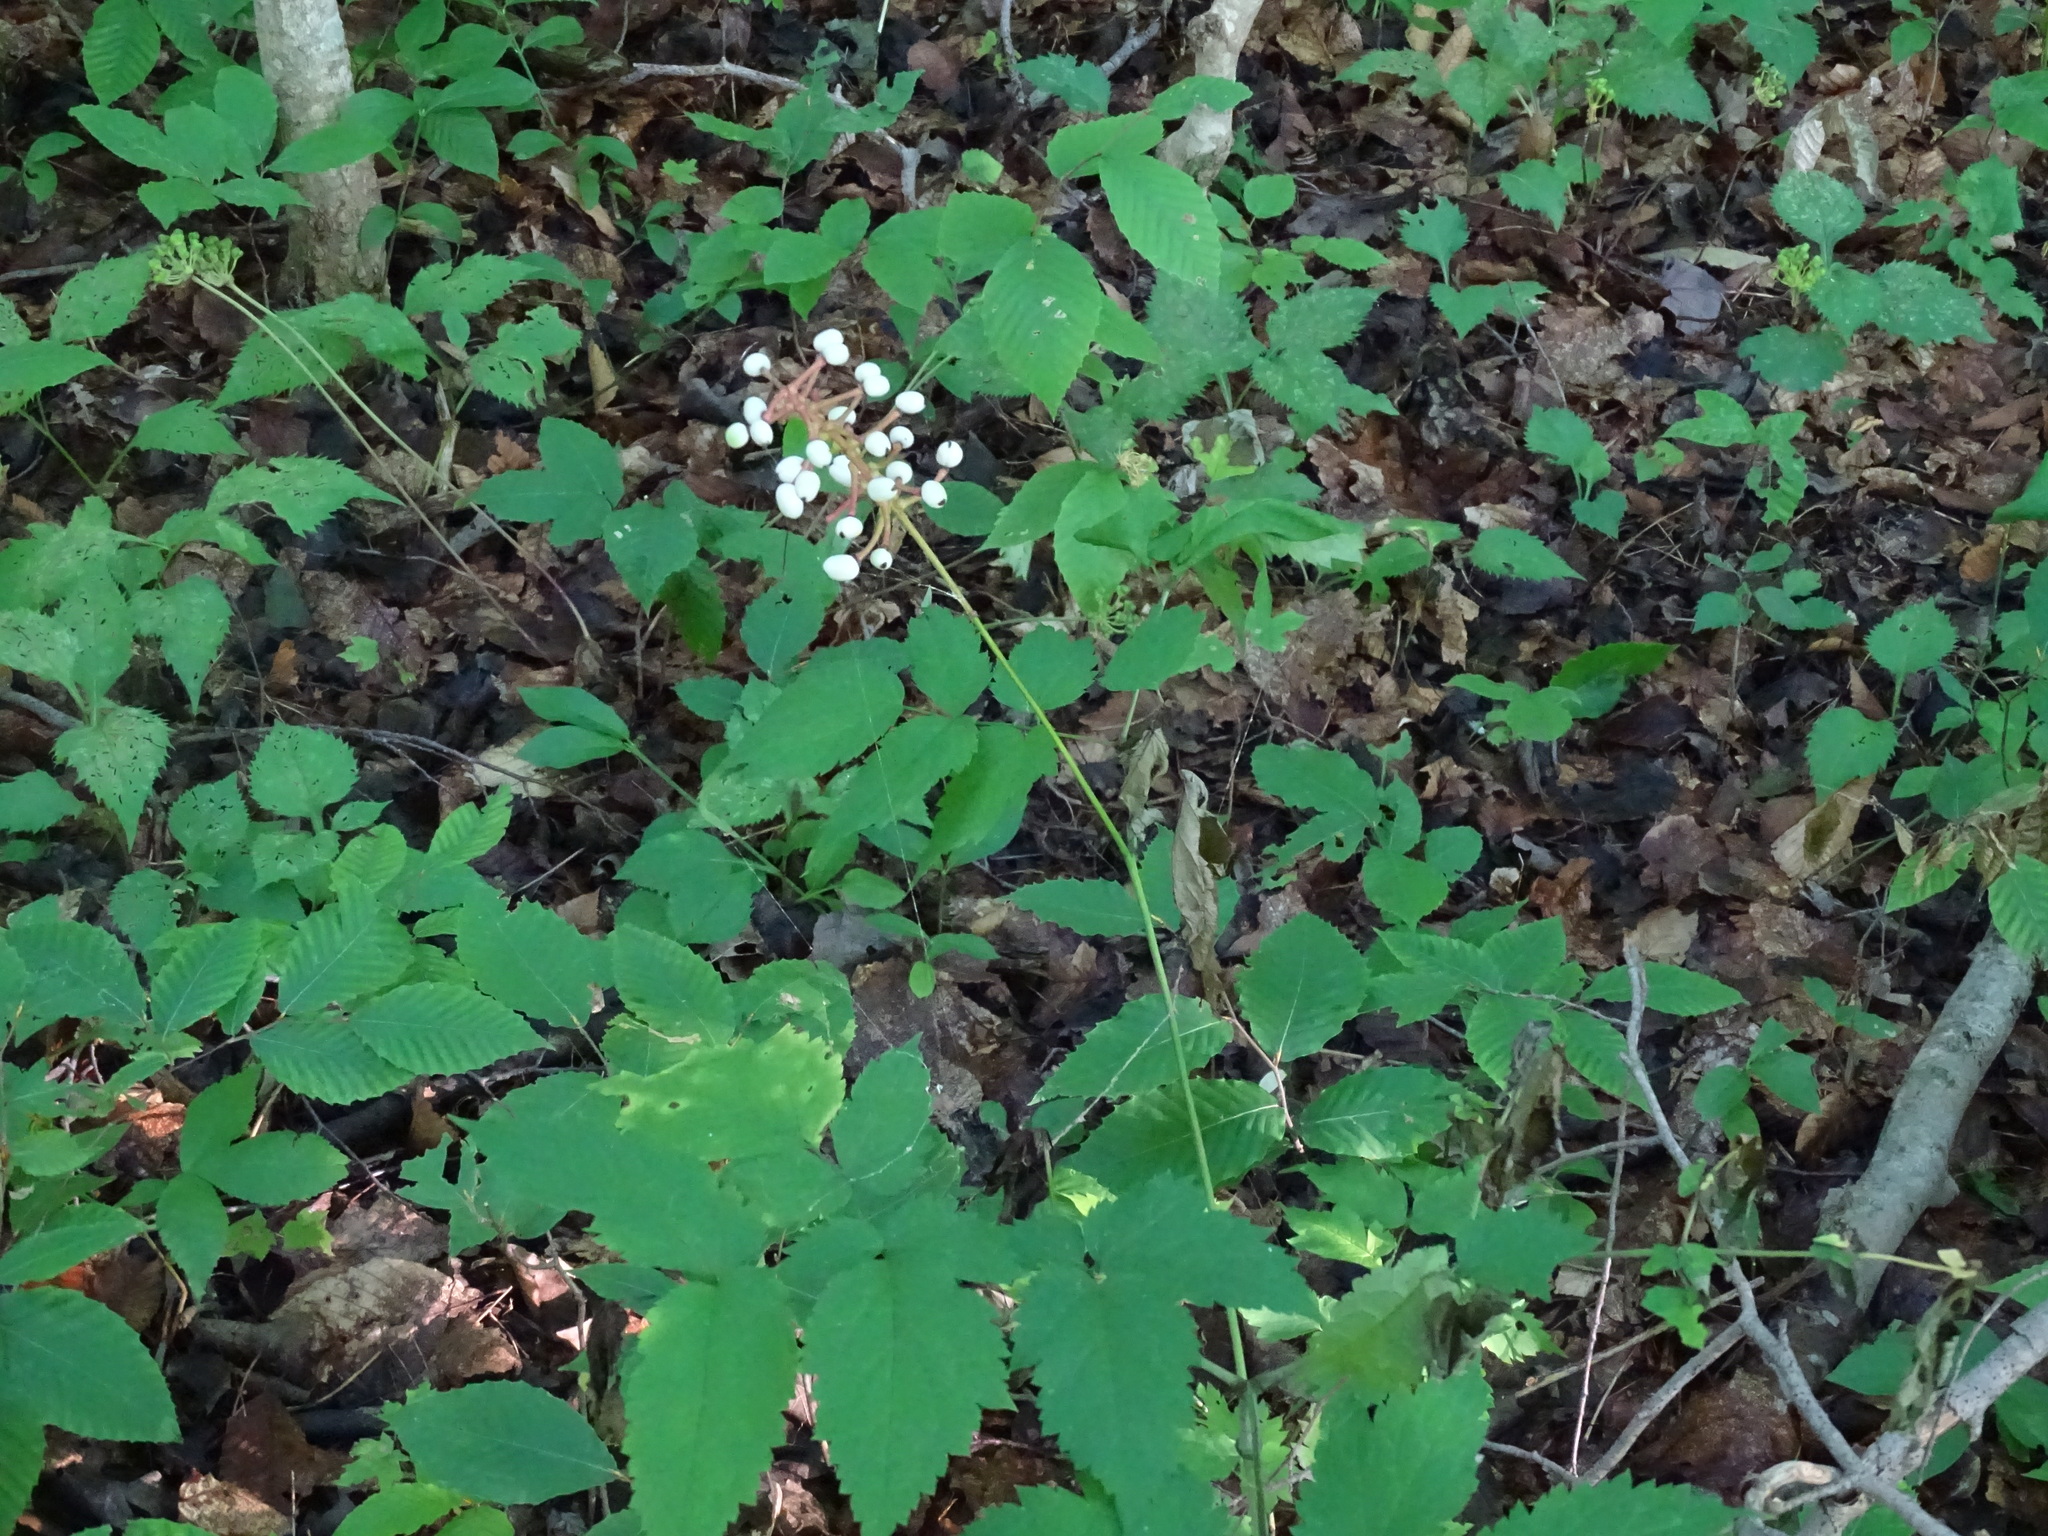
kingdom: Plantae
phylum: Tracheophyta
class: Magnoliopsida
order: Ranunculales
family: Ranunculaceae
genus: Actaea
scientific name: Actaea pachypoda
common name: Doll's-eyes
